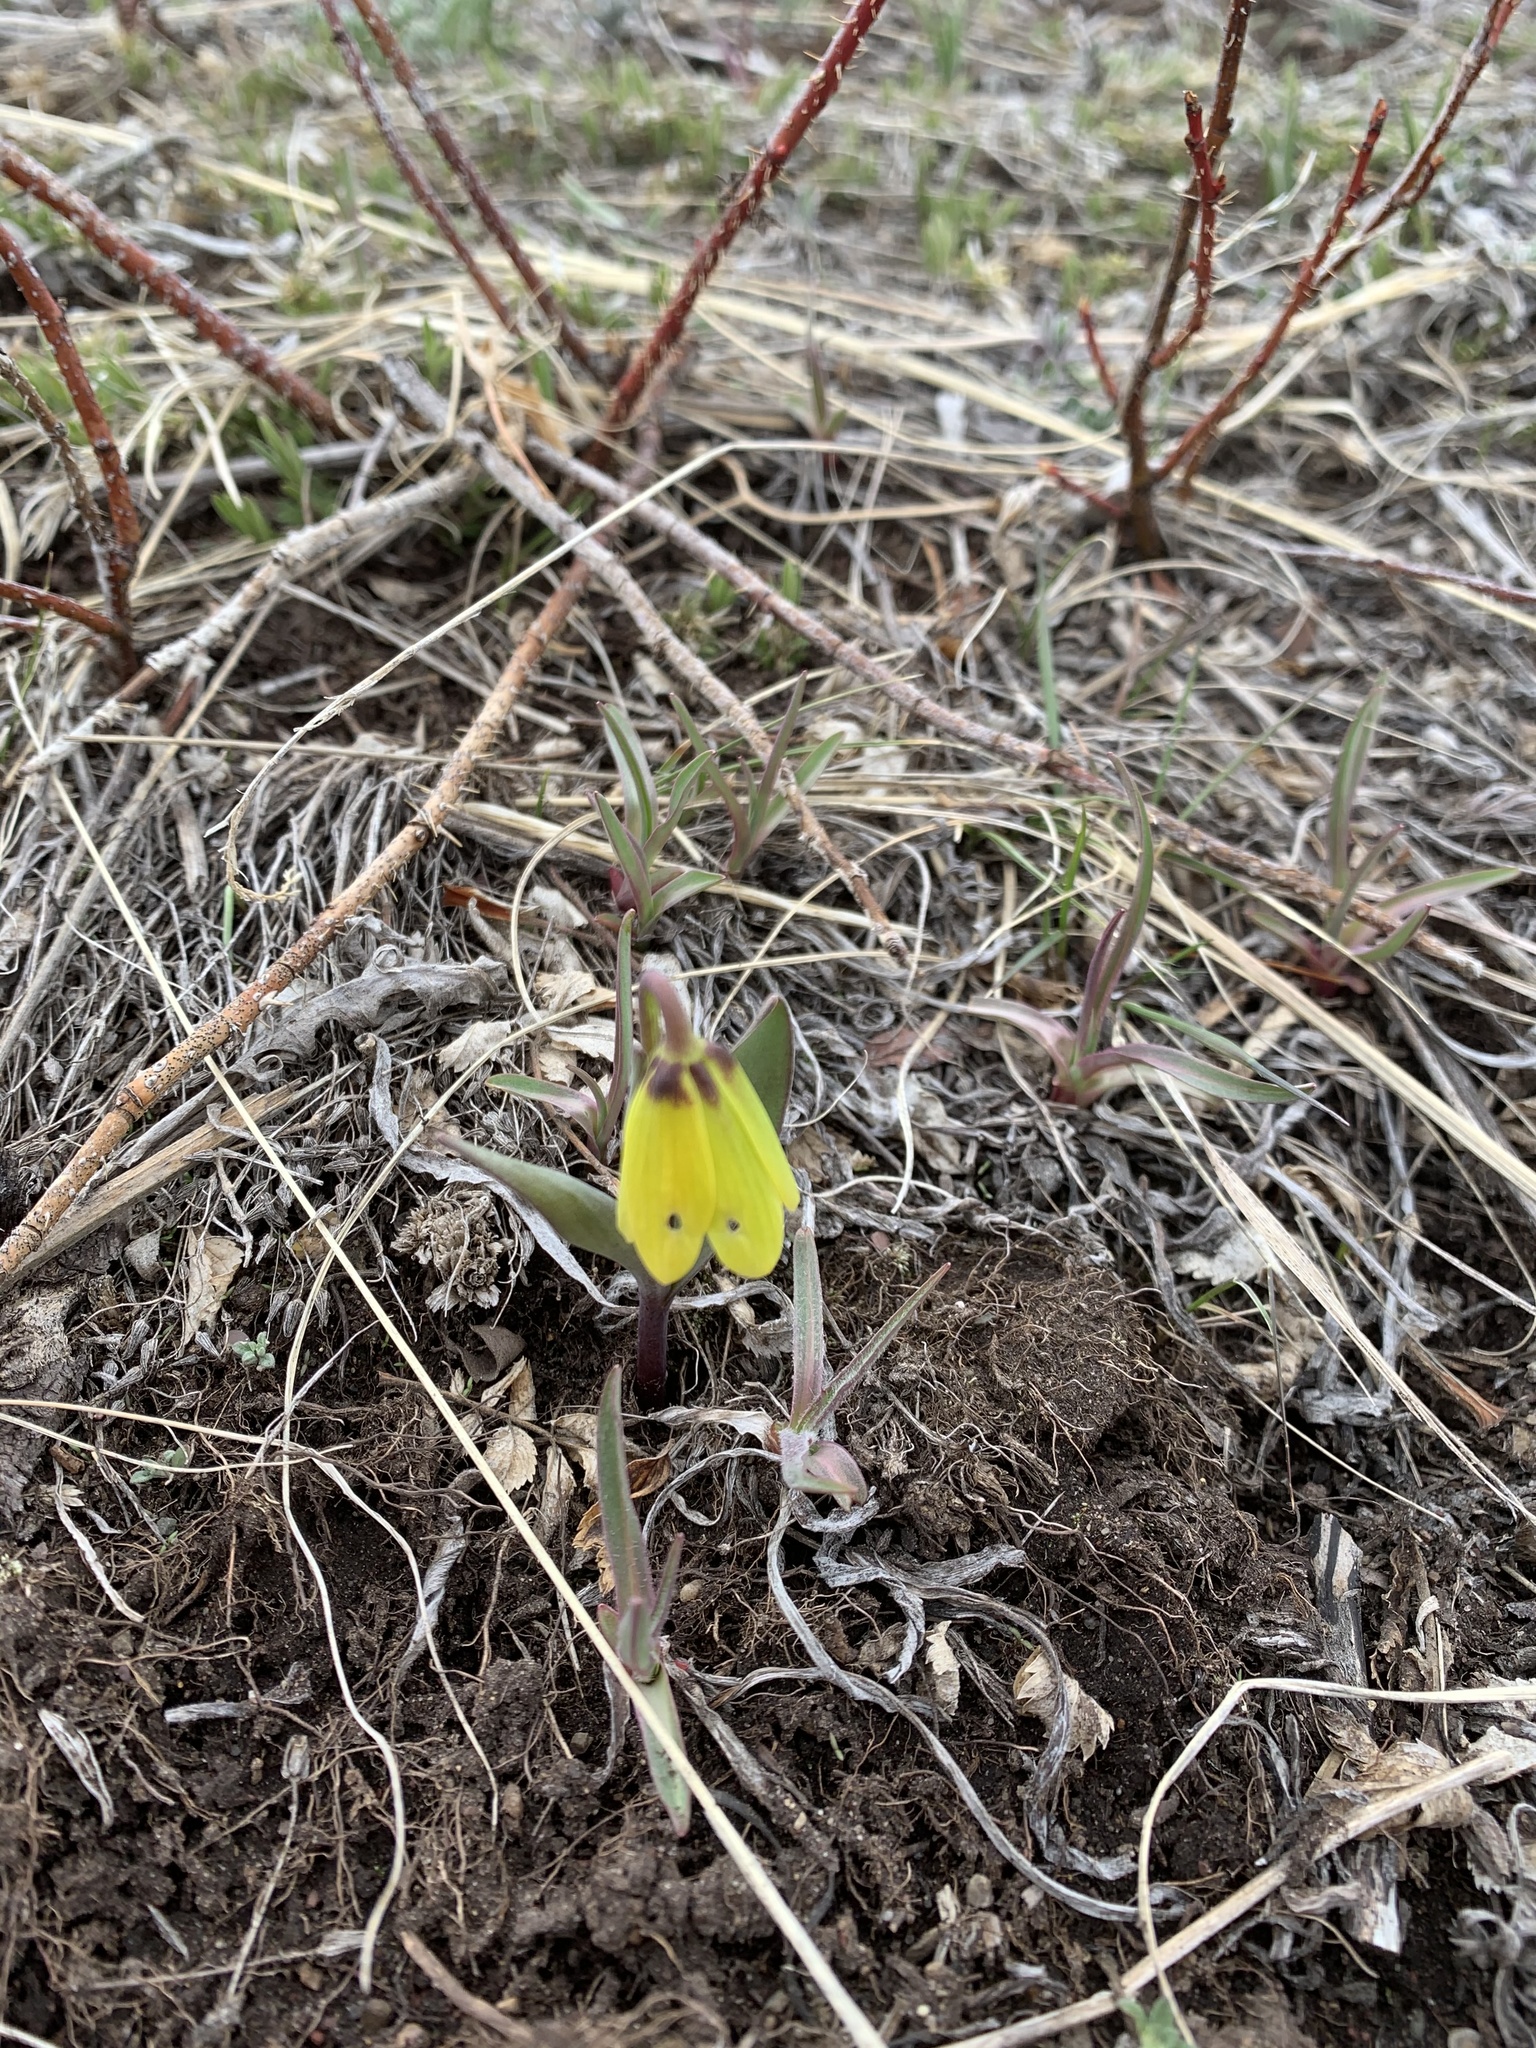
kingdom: Plantae
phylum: Tracheophyta
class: Liliopsida
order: Liliales
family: Liliaceae
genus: Fritillaria
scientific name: Fritillaria pudica
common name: Yellow fritillary
